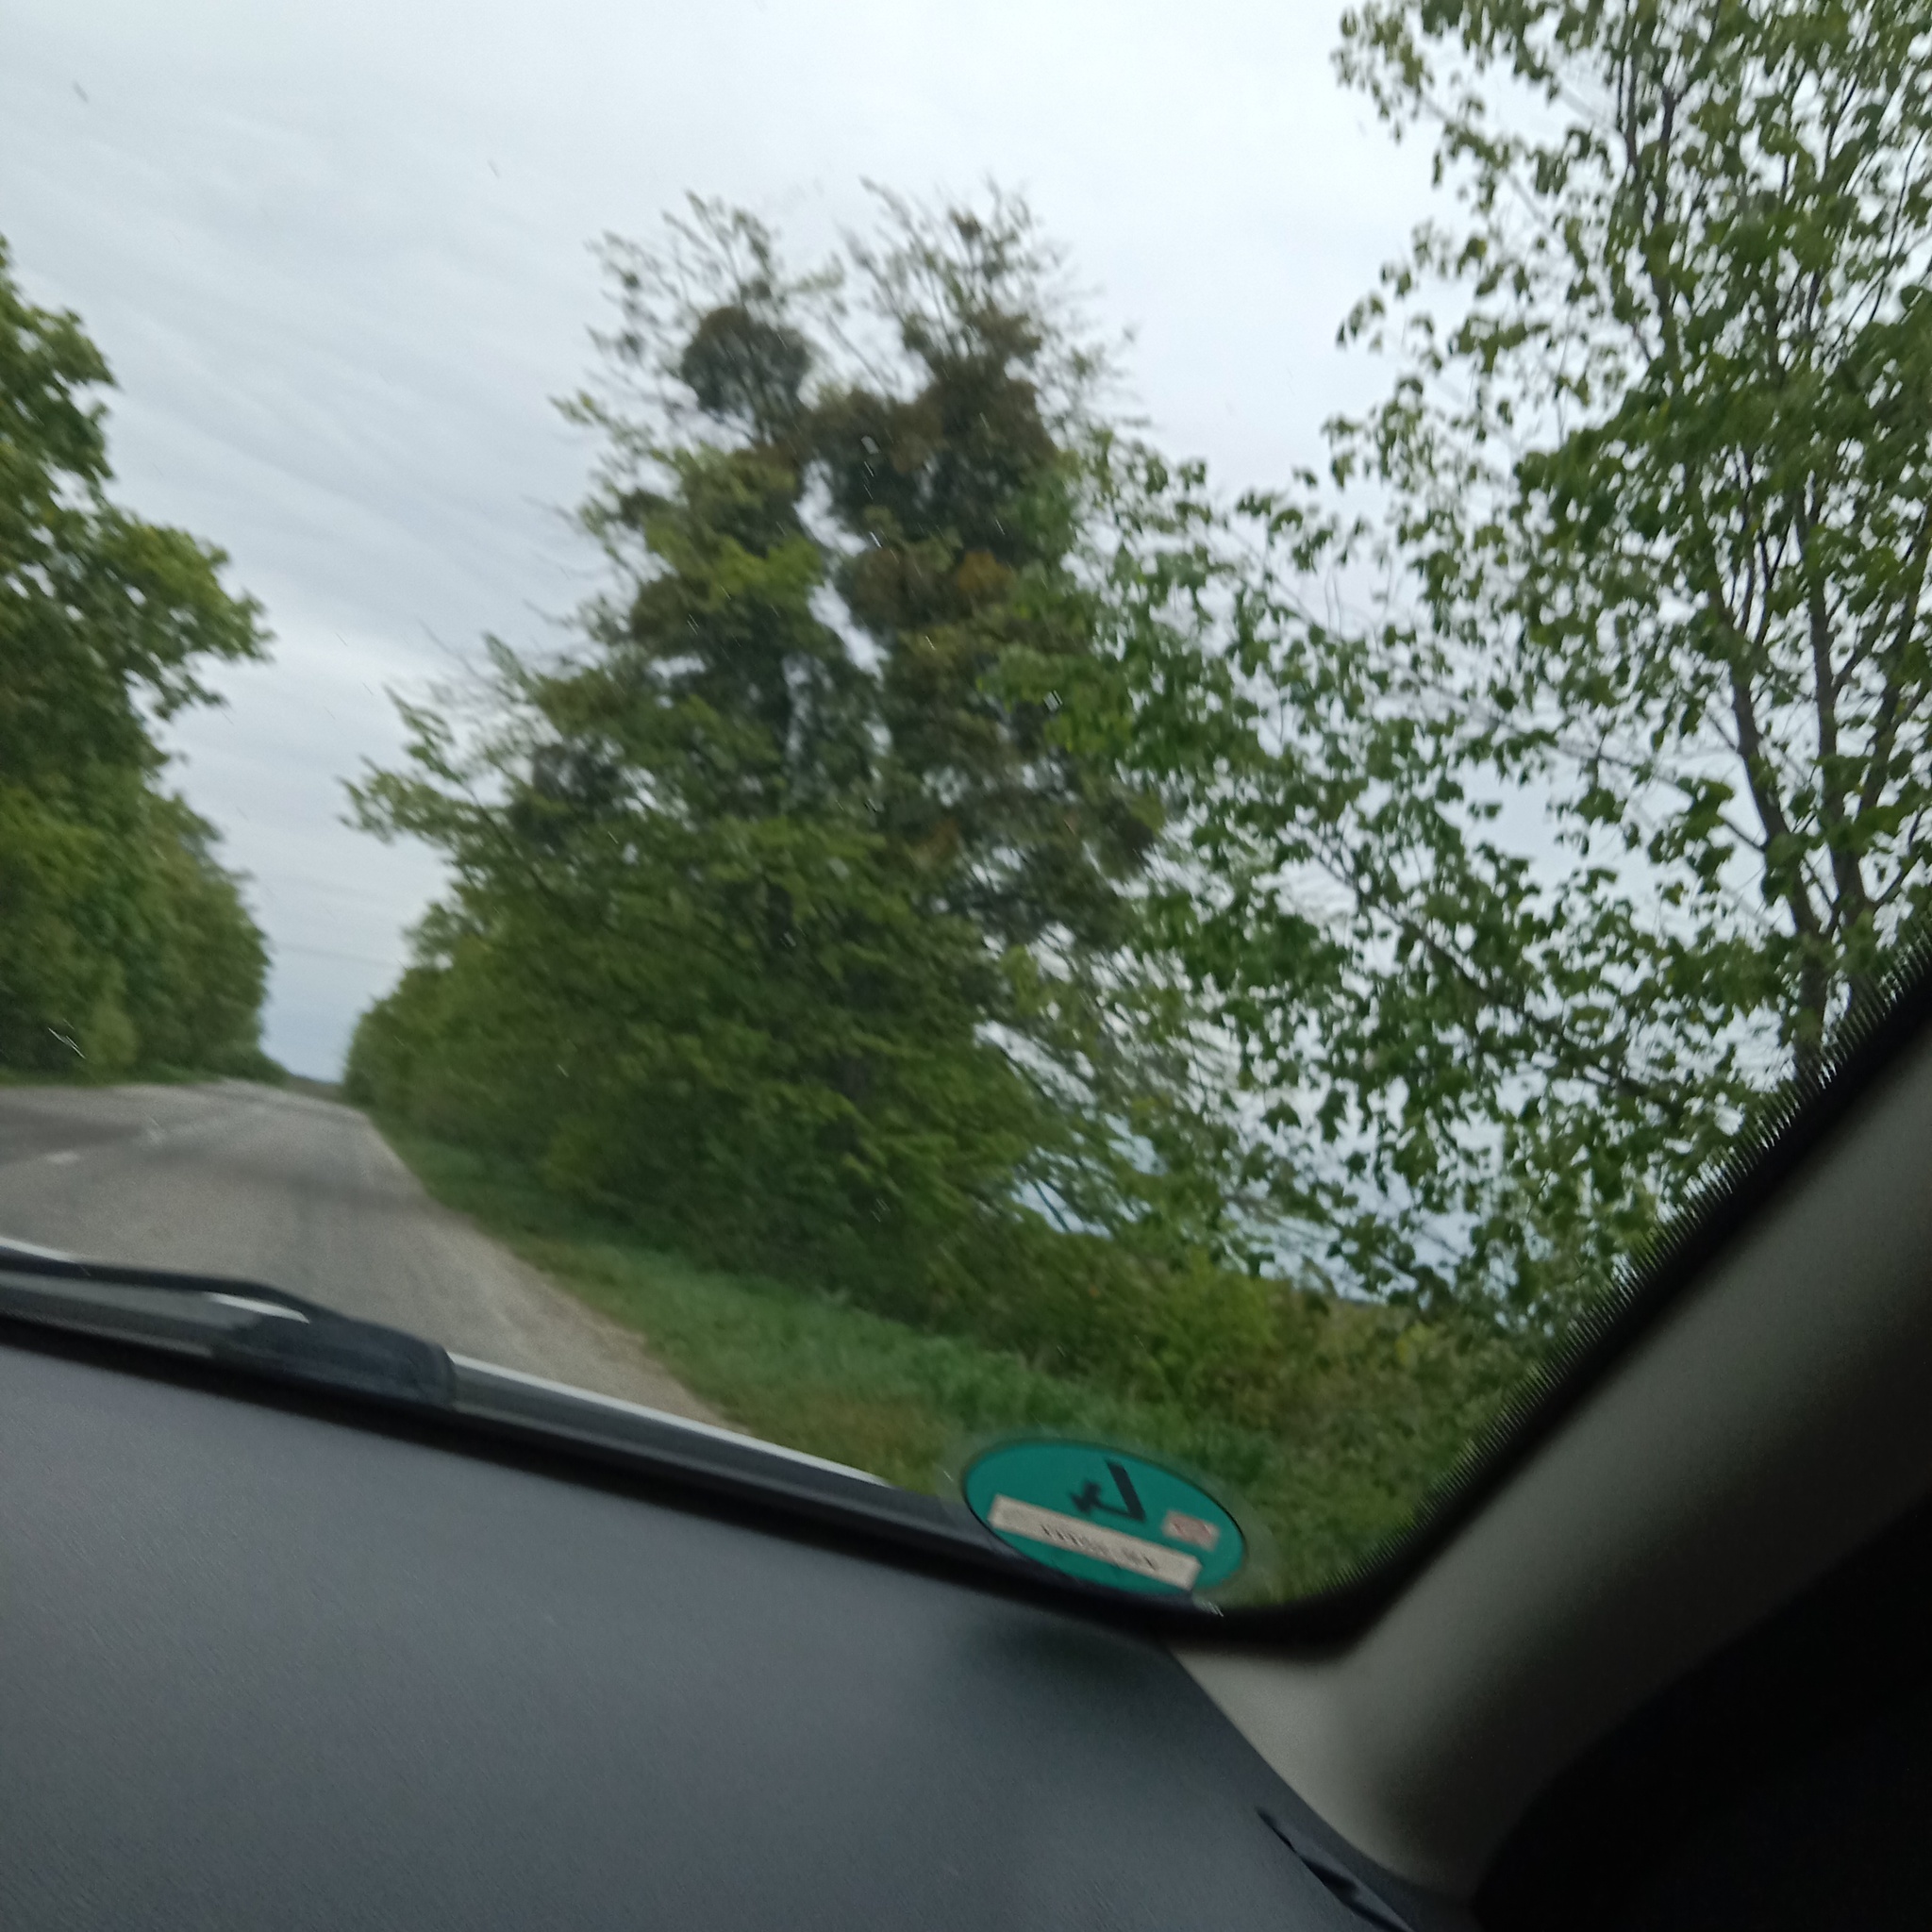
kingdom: Plantae
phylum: Tracheophyta
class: Magnoliopsida
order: Santalales
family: Viscaceae
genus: Viscum
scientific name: Viscum album
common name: Mistletoe
